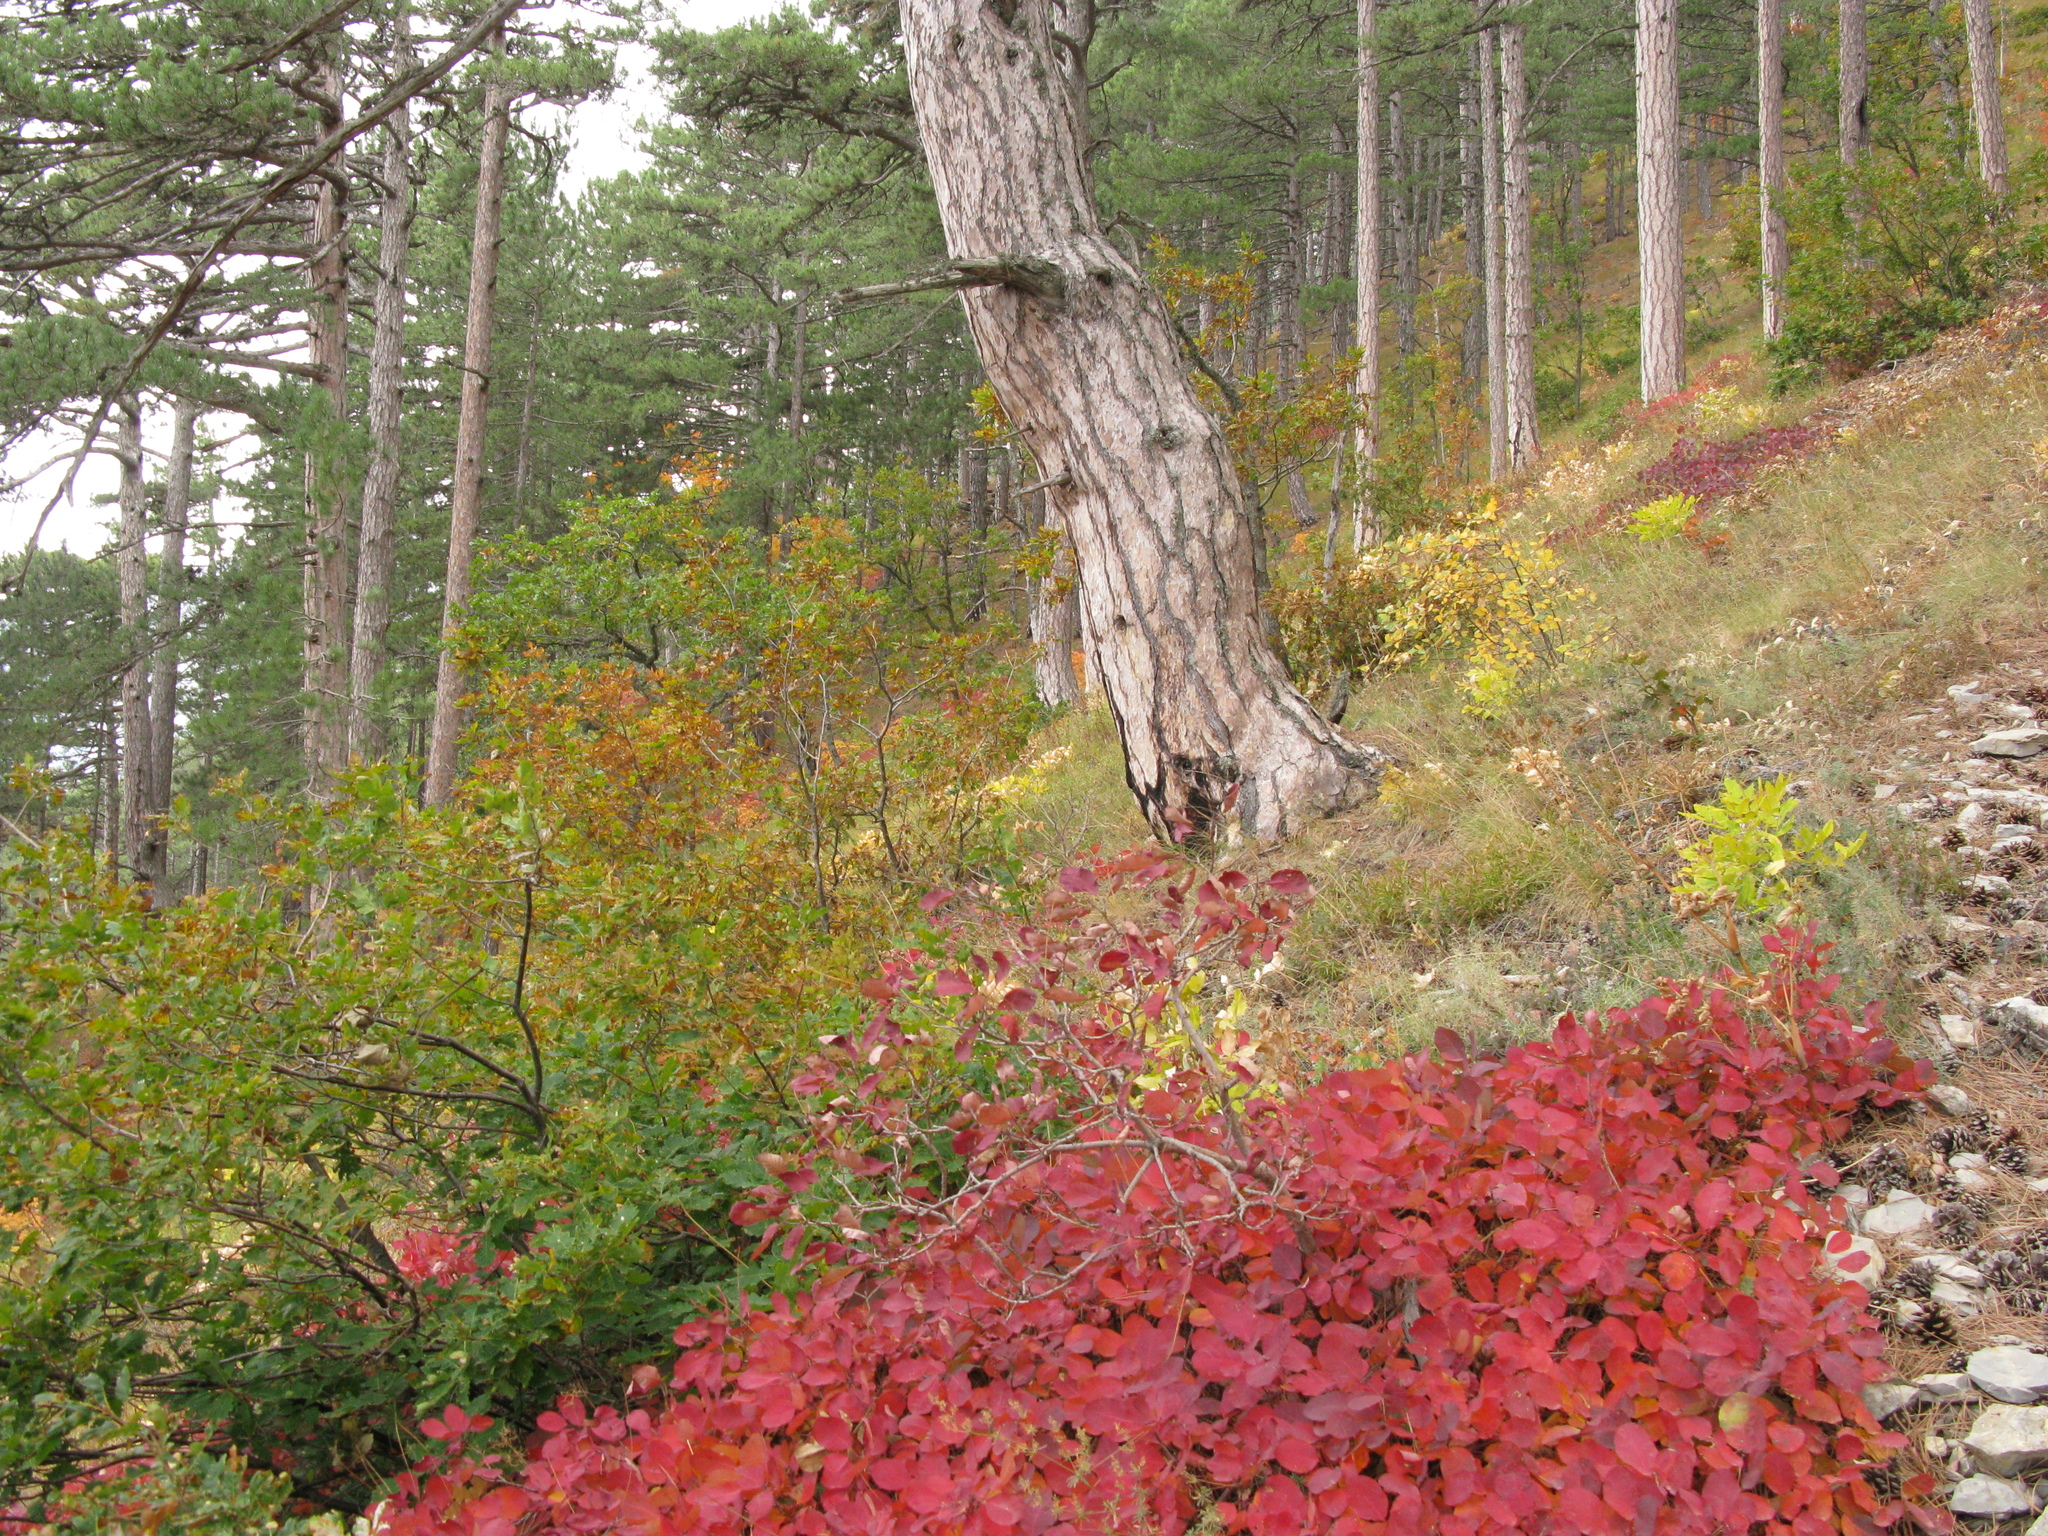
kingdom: Plantae
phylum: Tracheophyta
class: Magnoliopsida
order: Sapindales
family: Anacardiaceae
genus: Cotinus
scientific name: Cotinus coggygria
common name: Smoke-tree
